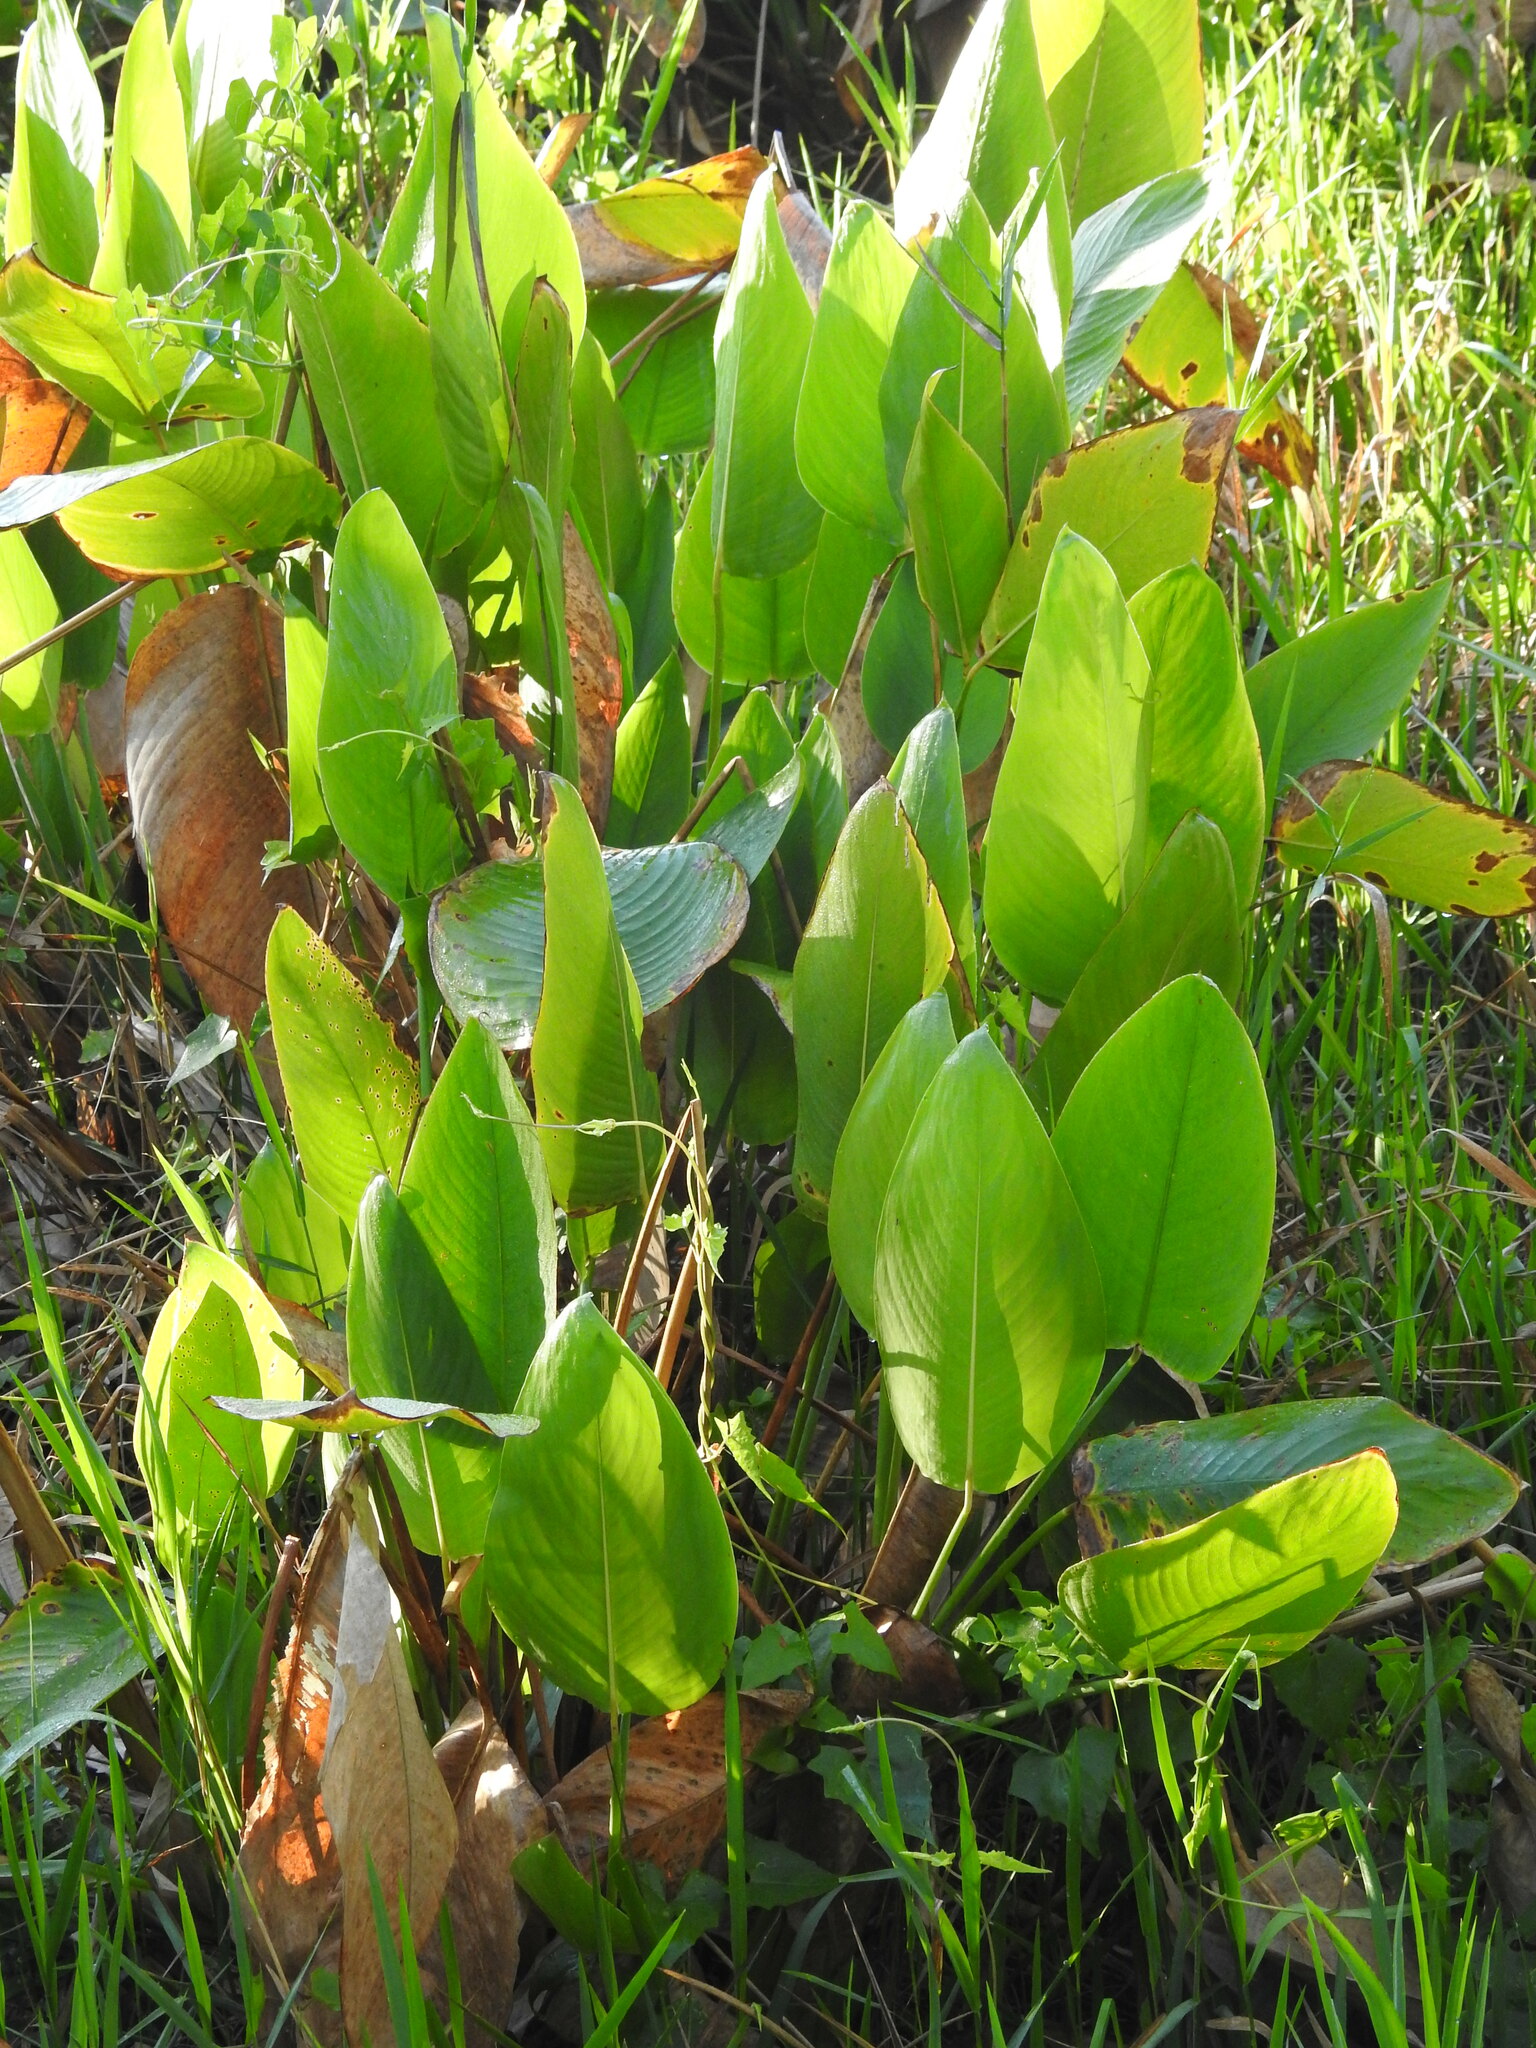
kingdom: Plantae
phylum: Tracheophyta
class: Liliopsida
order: Zingiberales
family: Marantaceae
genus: Thalia
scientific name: Thalia geniculata
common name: Arrowroot
